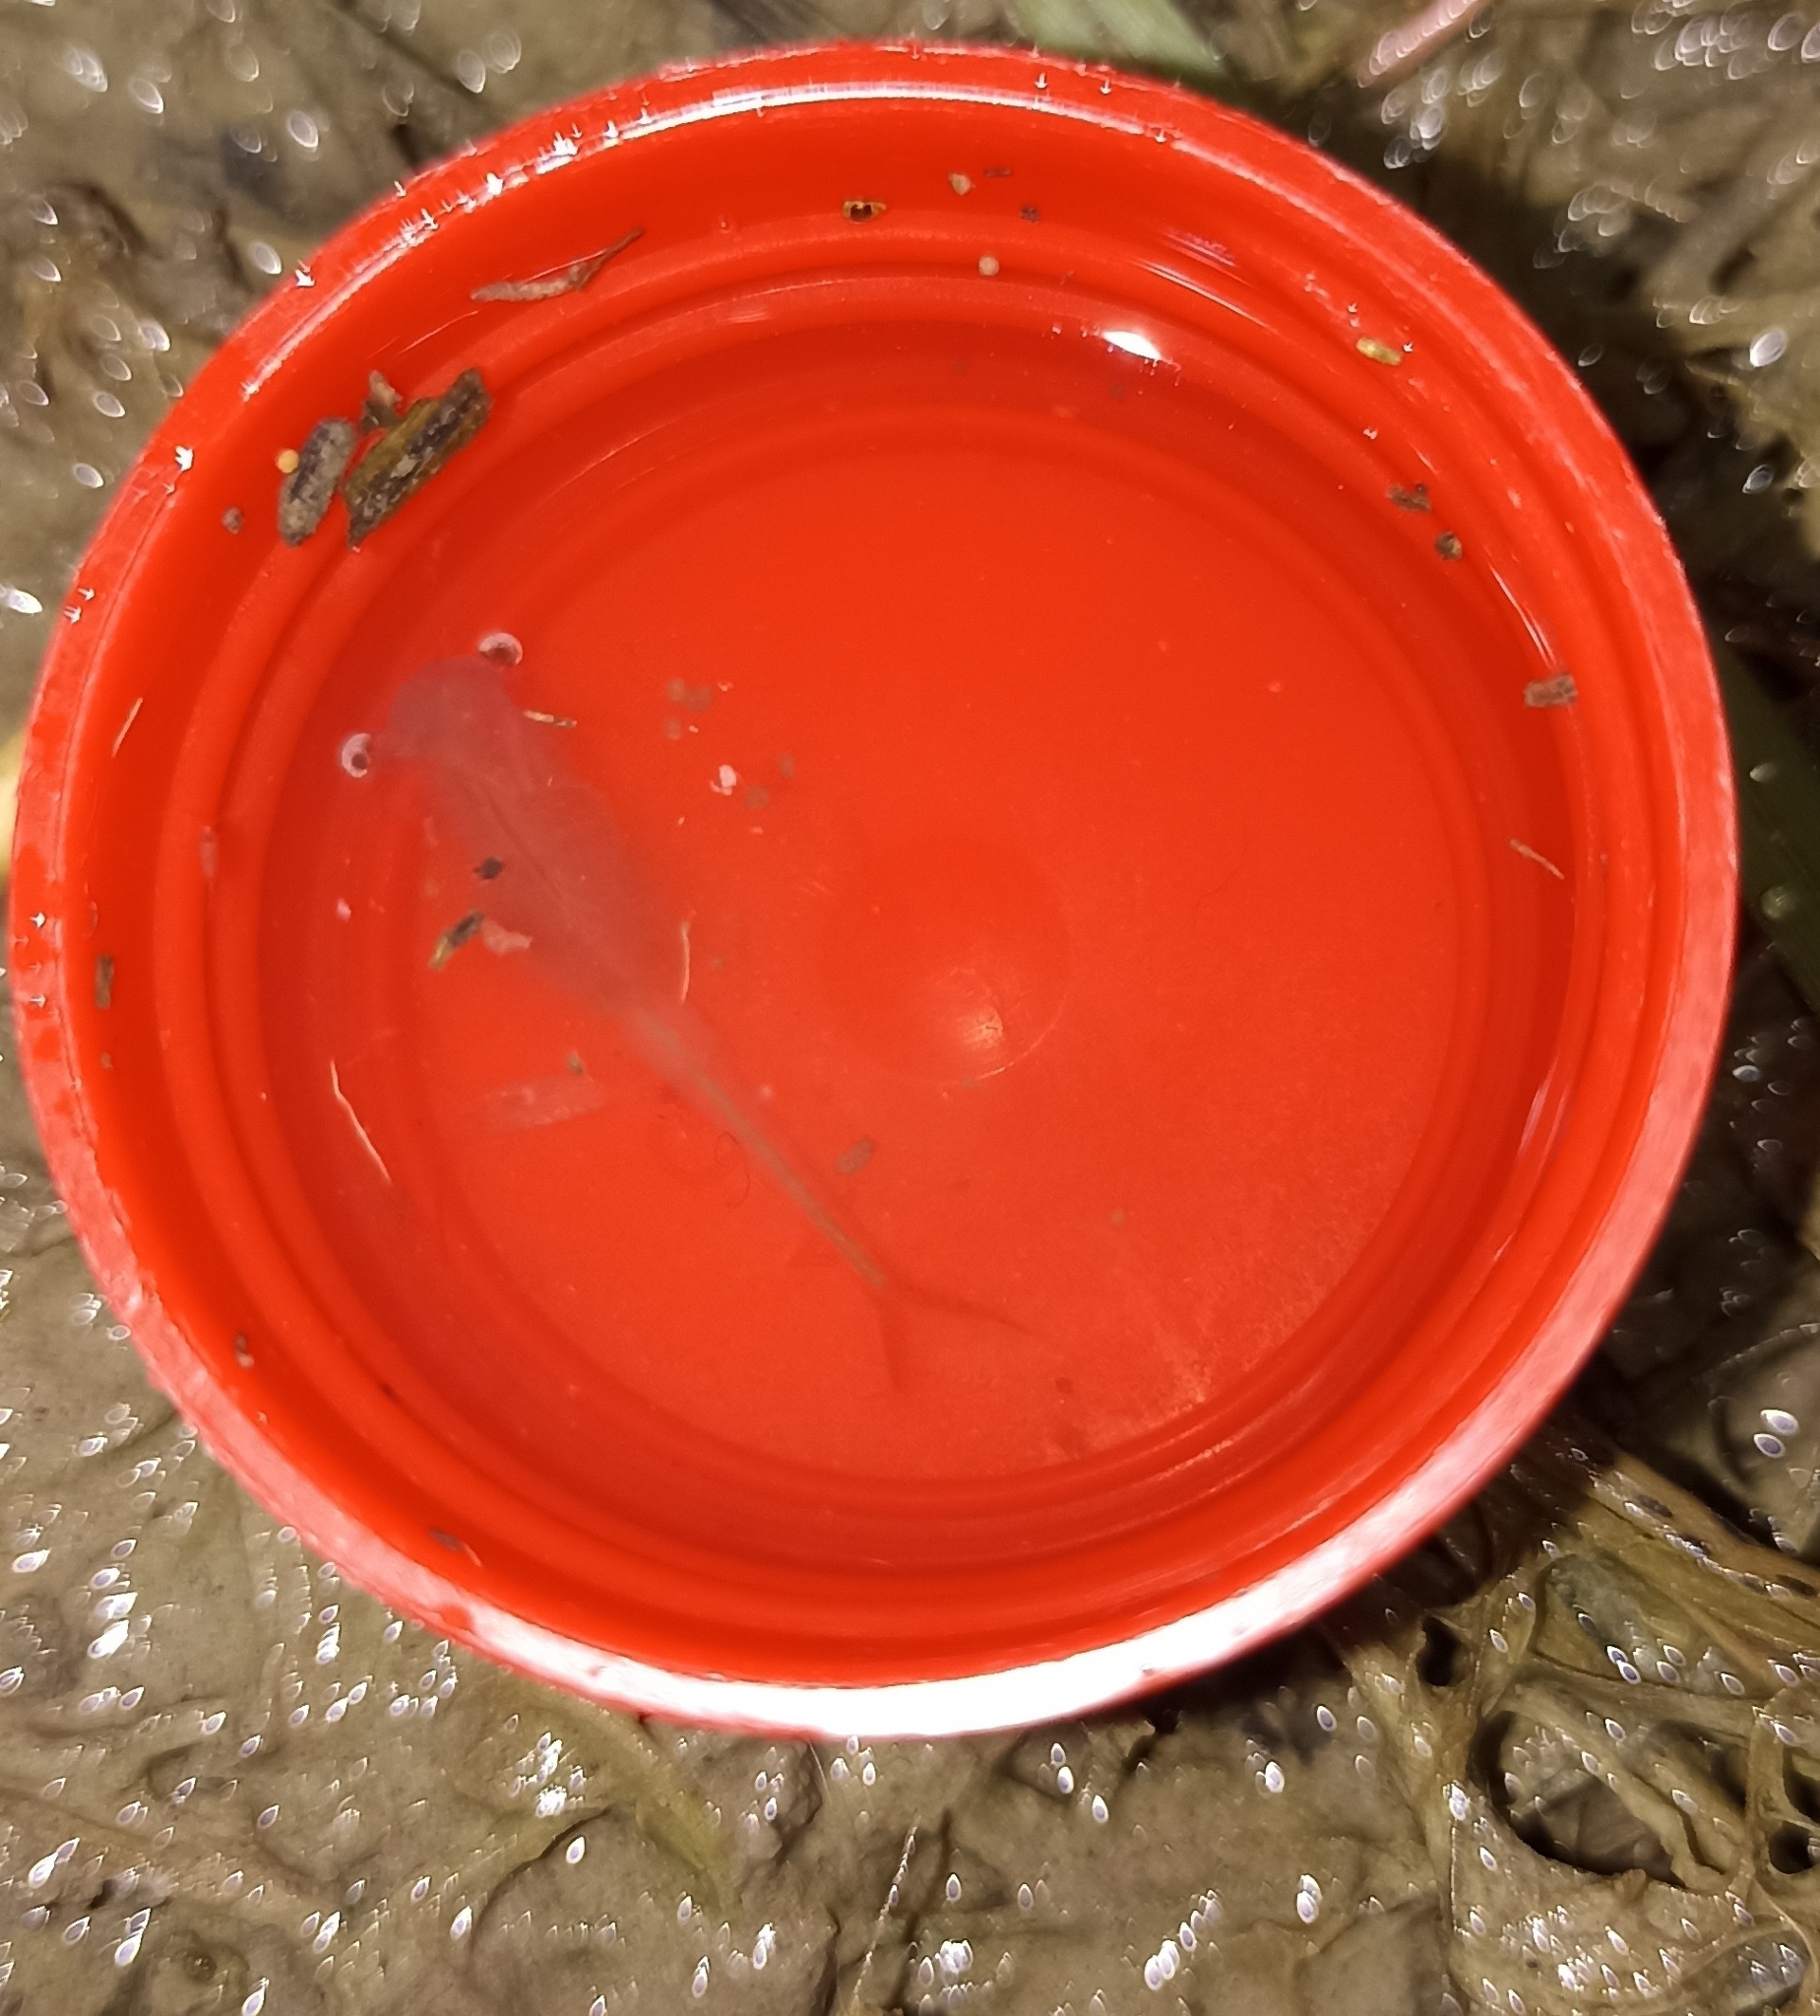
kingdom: Animalia
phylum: Arthropoda
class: Branchiopoda
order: Anostraca
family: Chirocephalidae
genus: Chirocephalus
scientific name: Chirocephalus diaphanus
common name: Fairy shrimp
